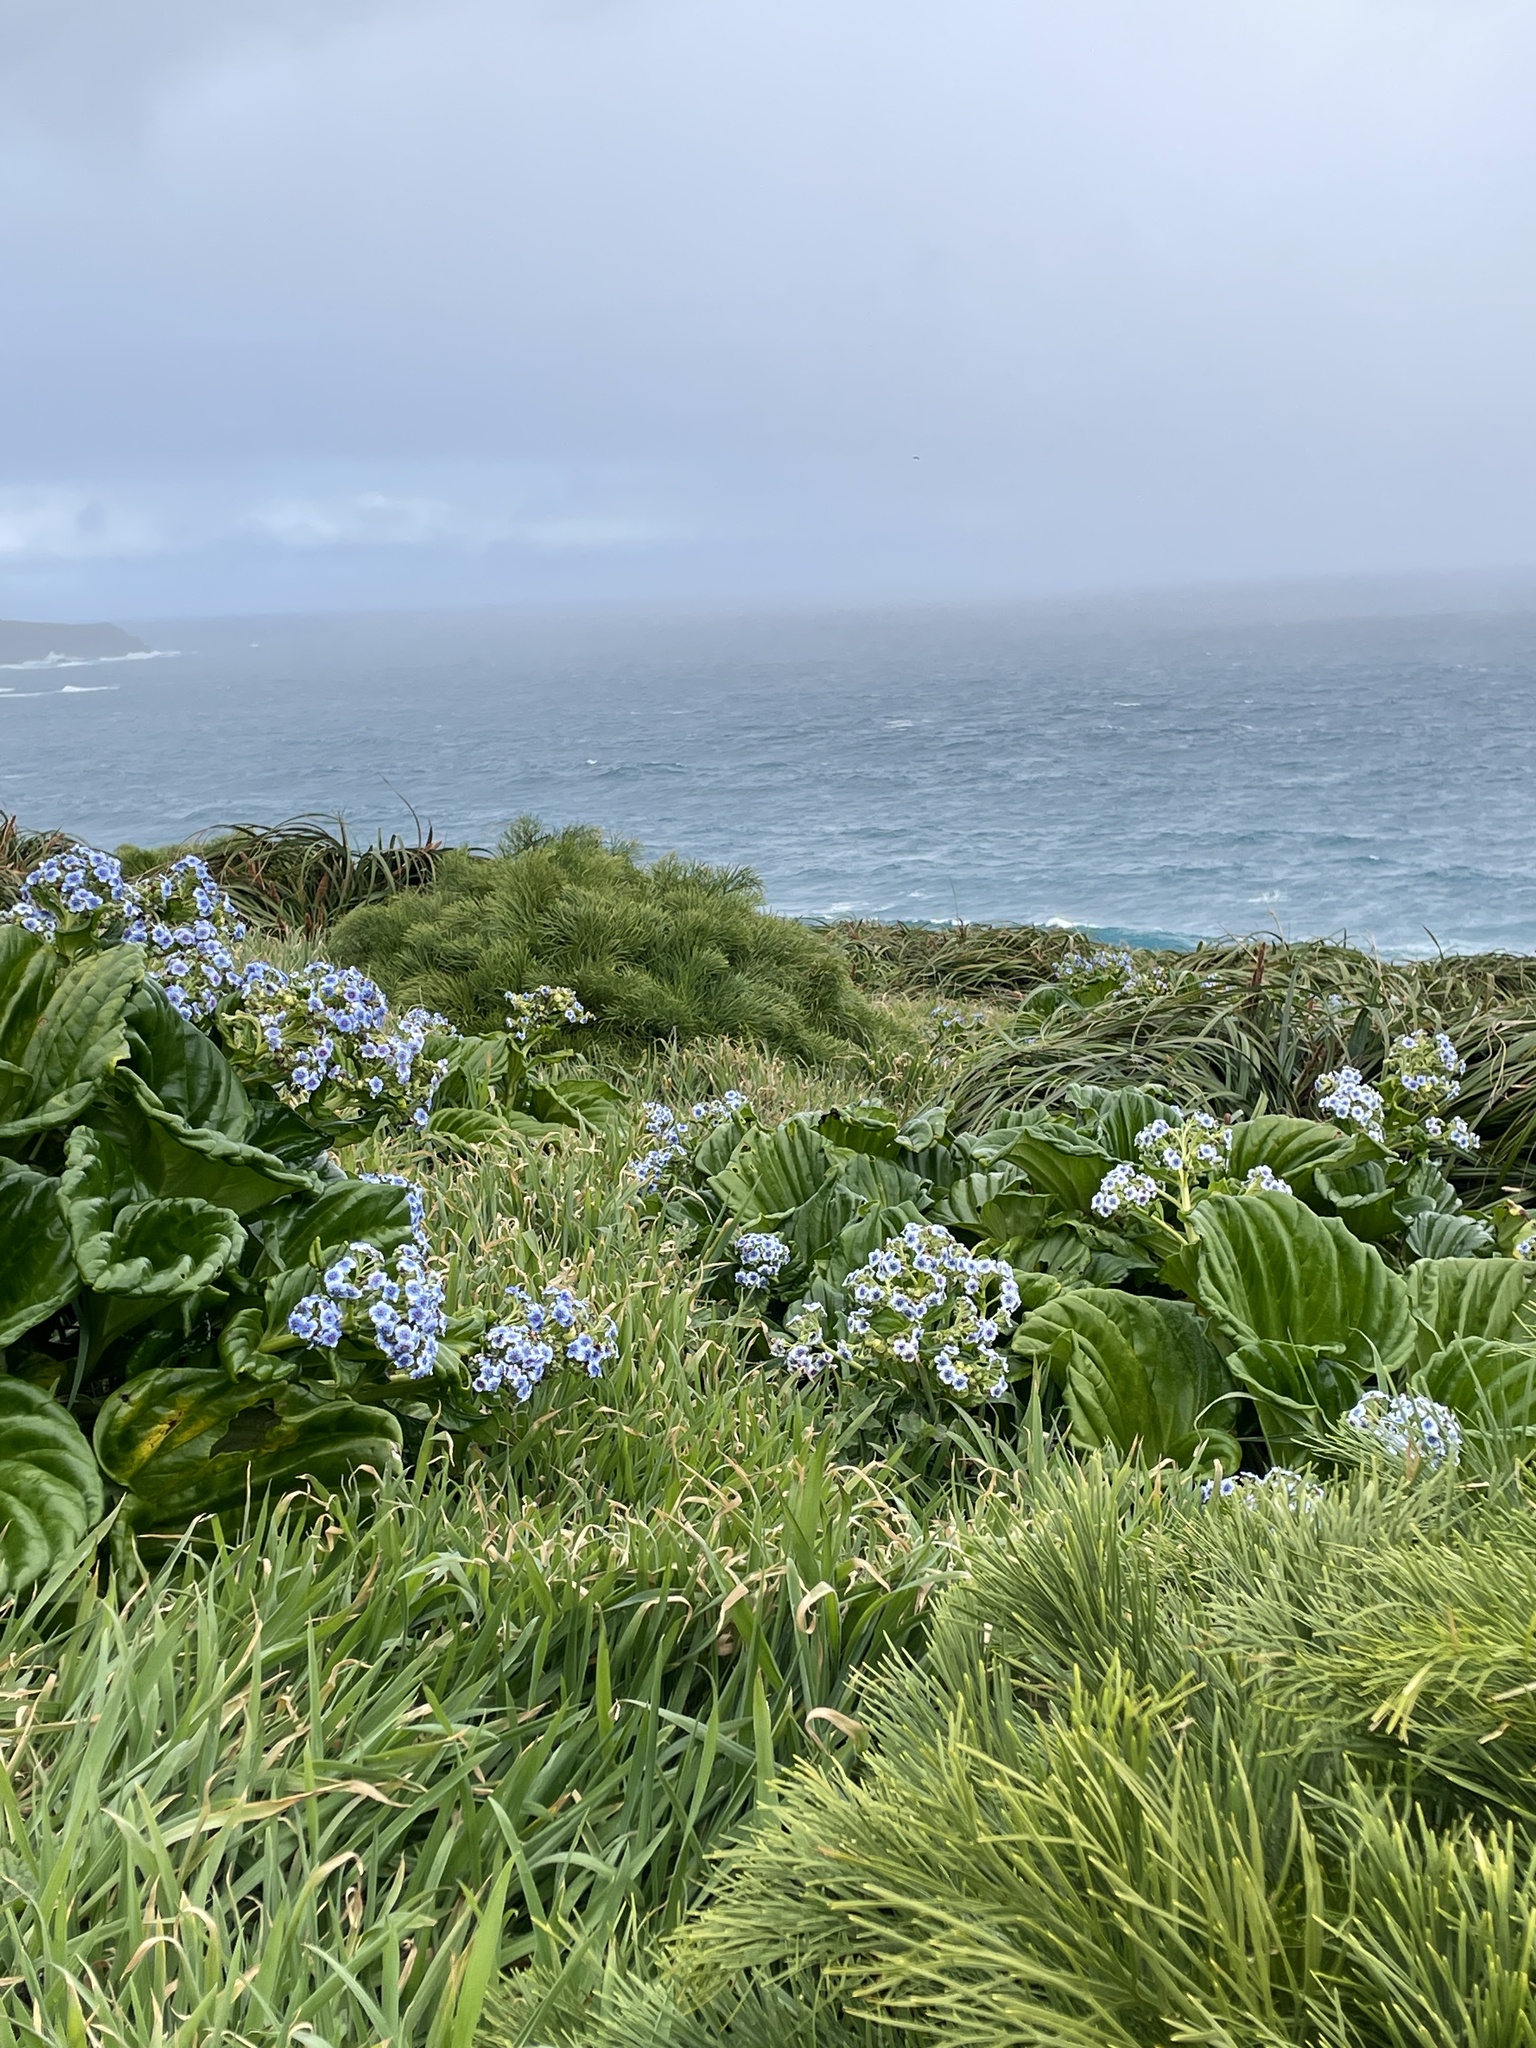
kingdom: Plantae
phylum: Tracheophyta
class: Magnoliopsida
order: Boraginales
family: Boraginaceae
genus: Myosotidium
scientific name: Myosotidium hortensia
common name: Giant forget-me-not
